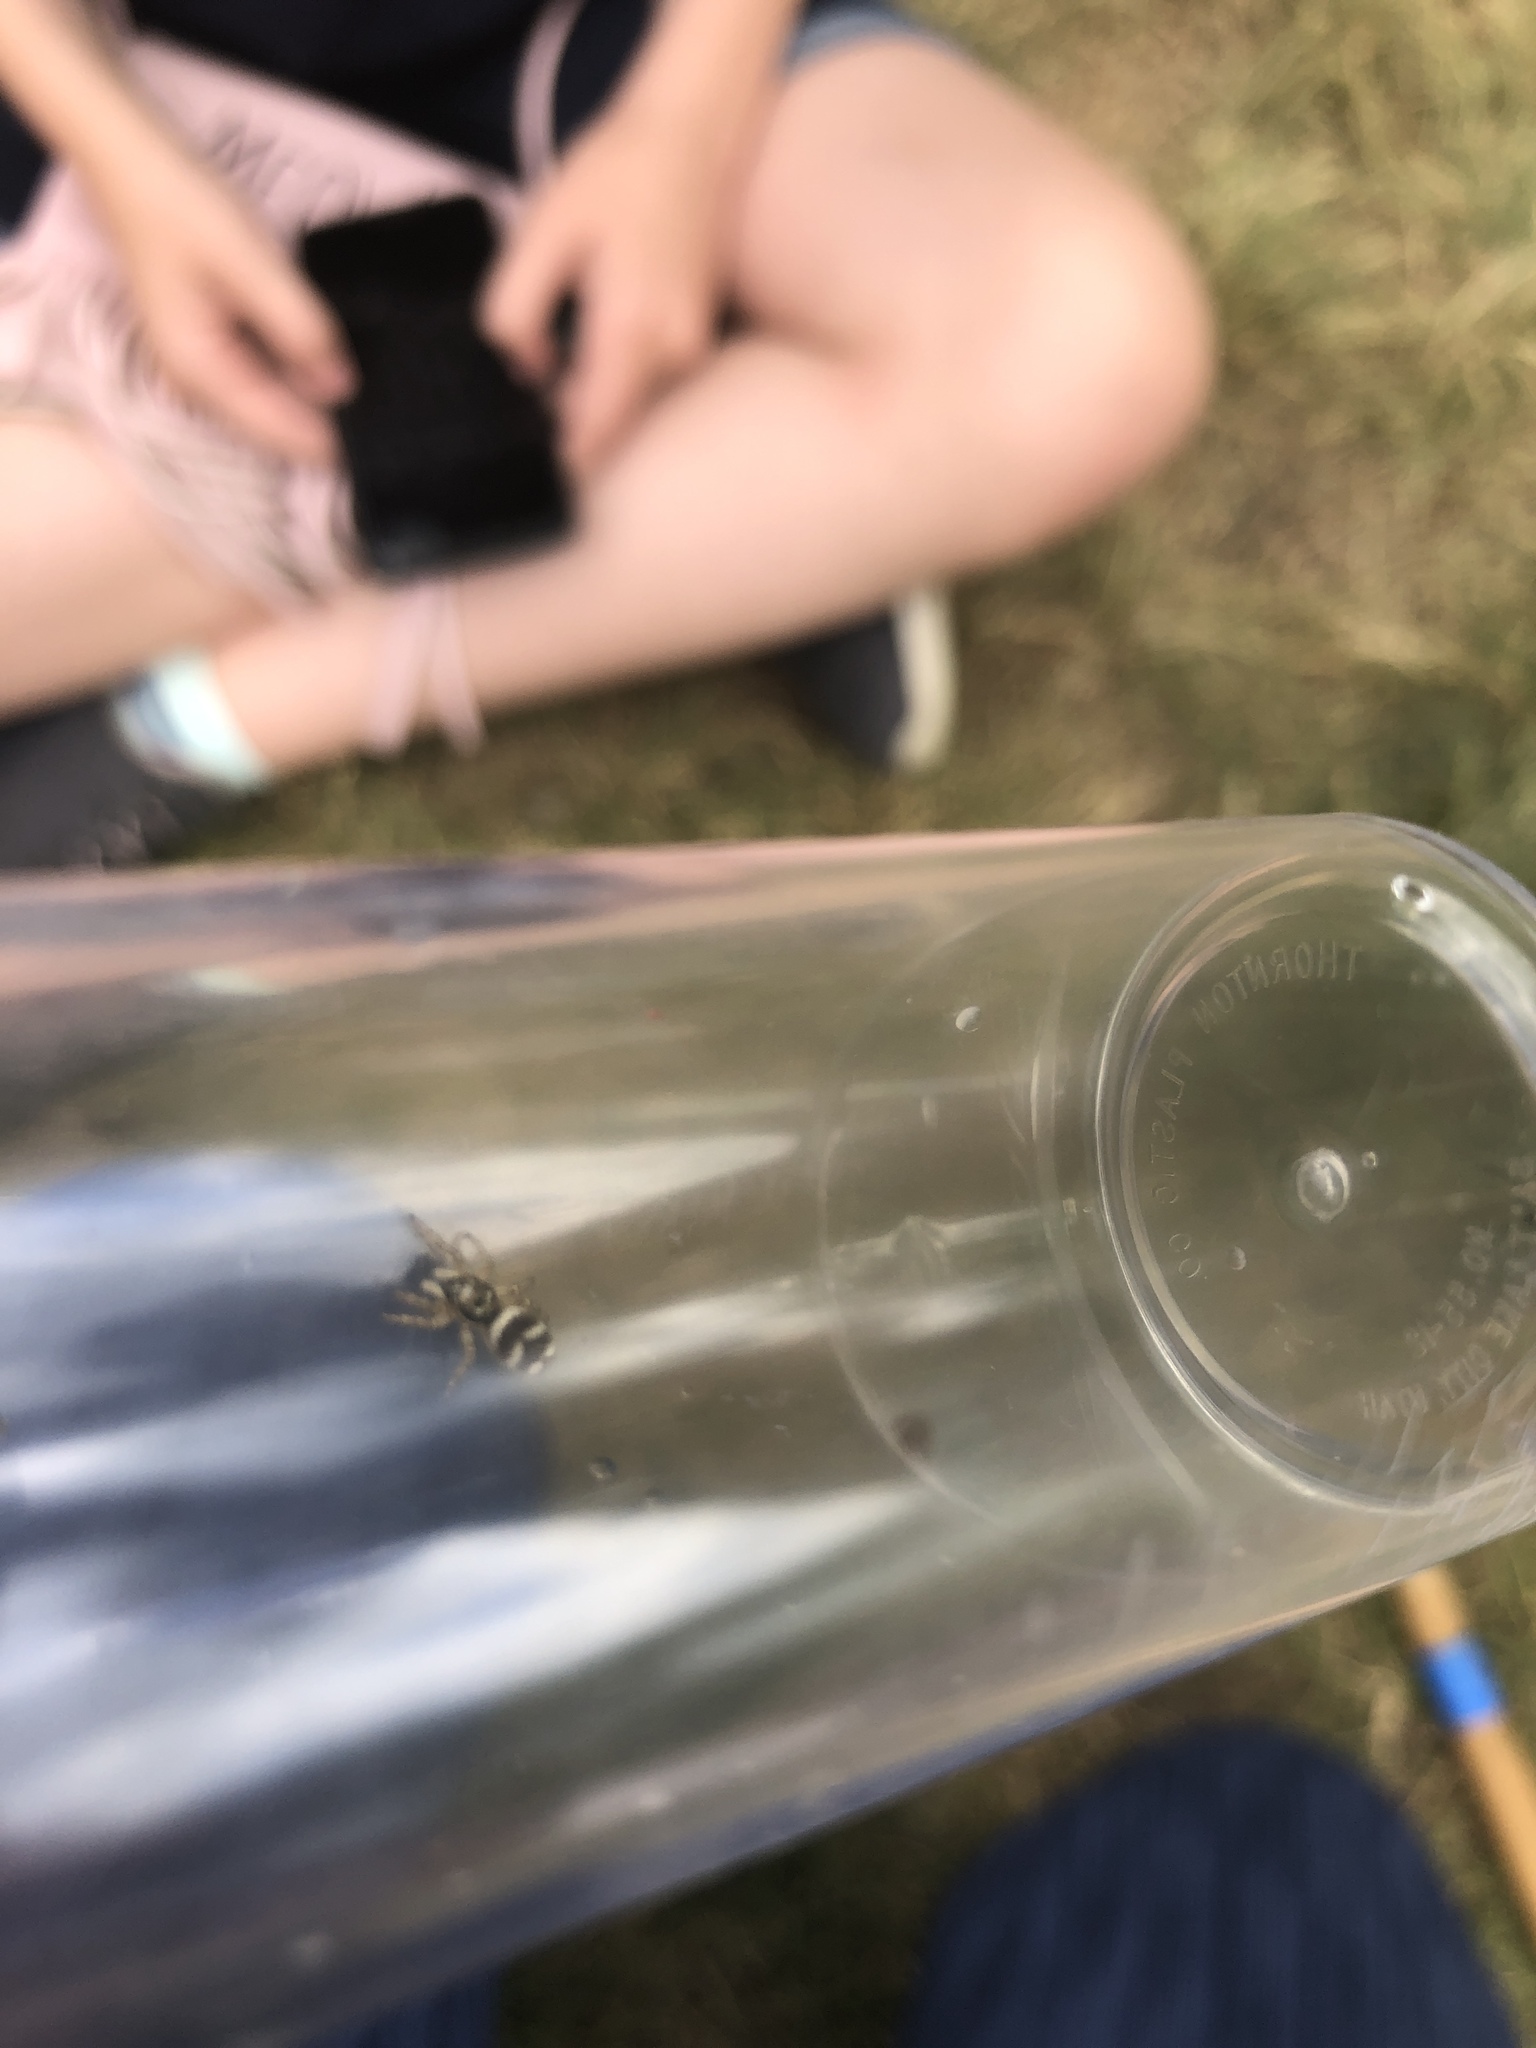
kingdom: Animalia
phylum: Arthropoda
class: Arachnida
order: Araneae
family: Salticidae
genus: Salticus
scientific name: Salticus scenicus
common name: Zebra jumper
